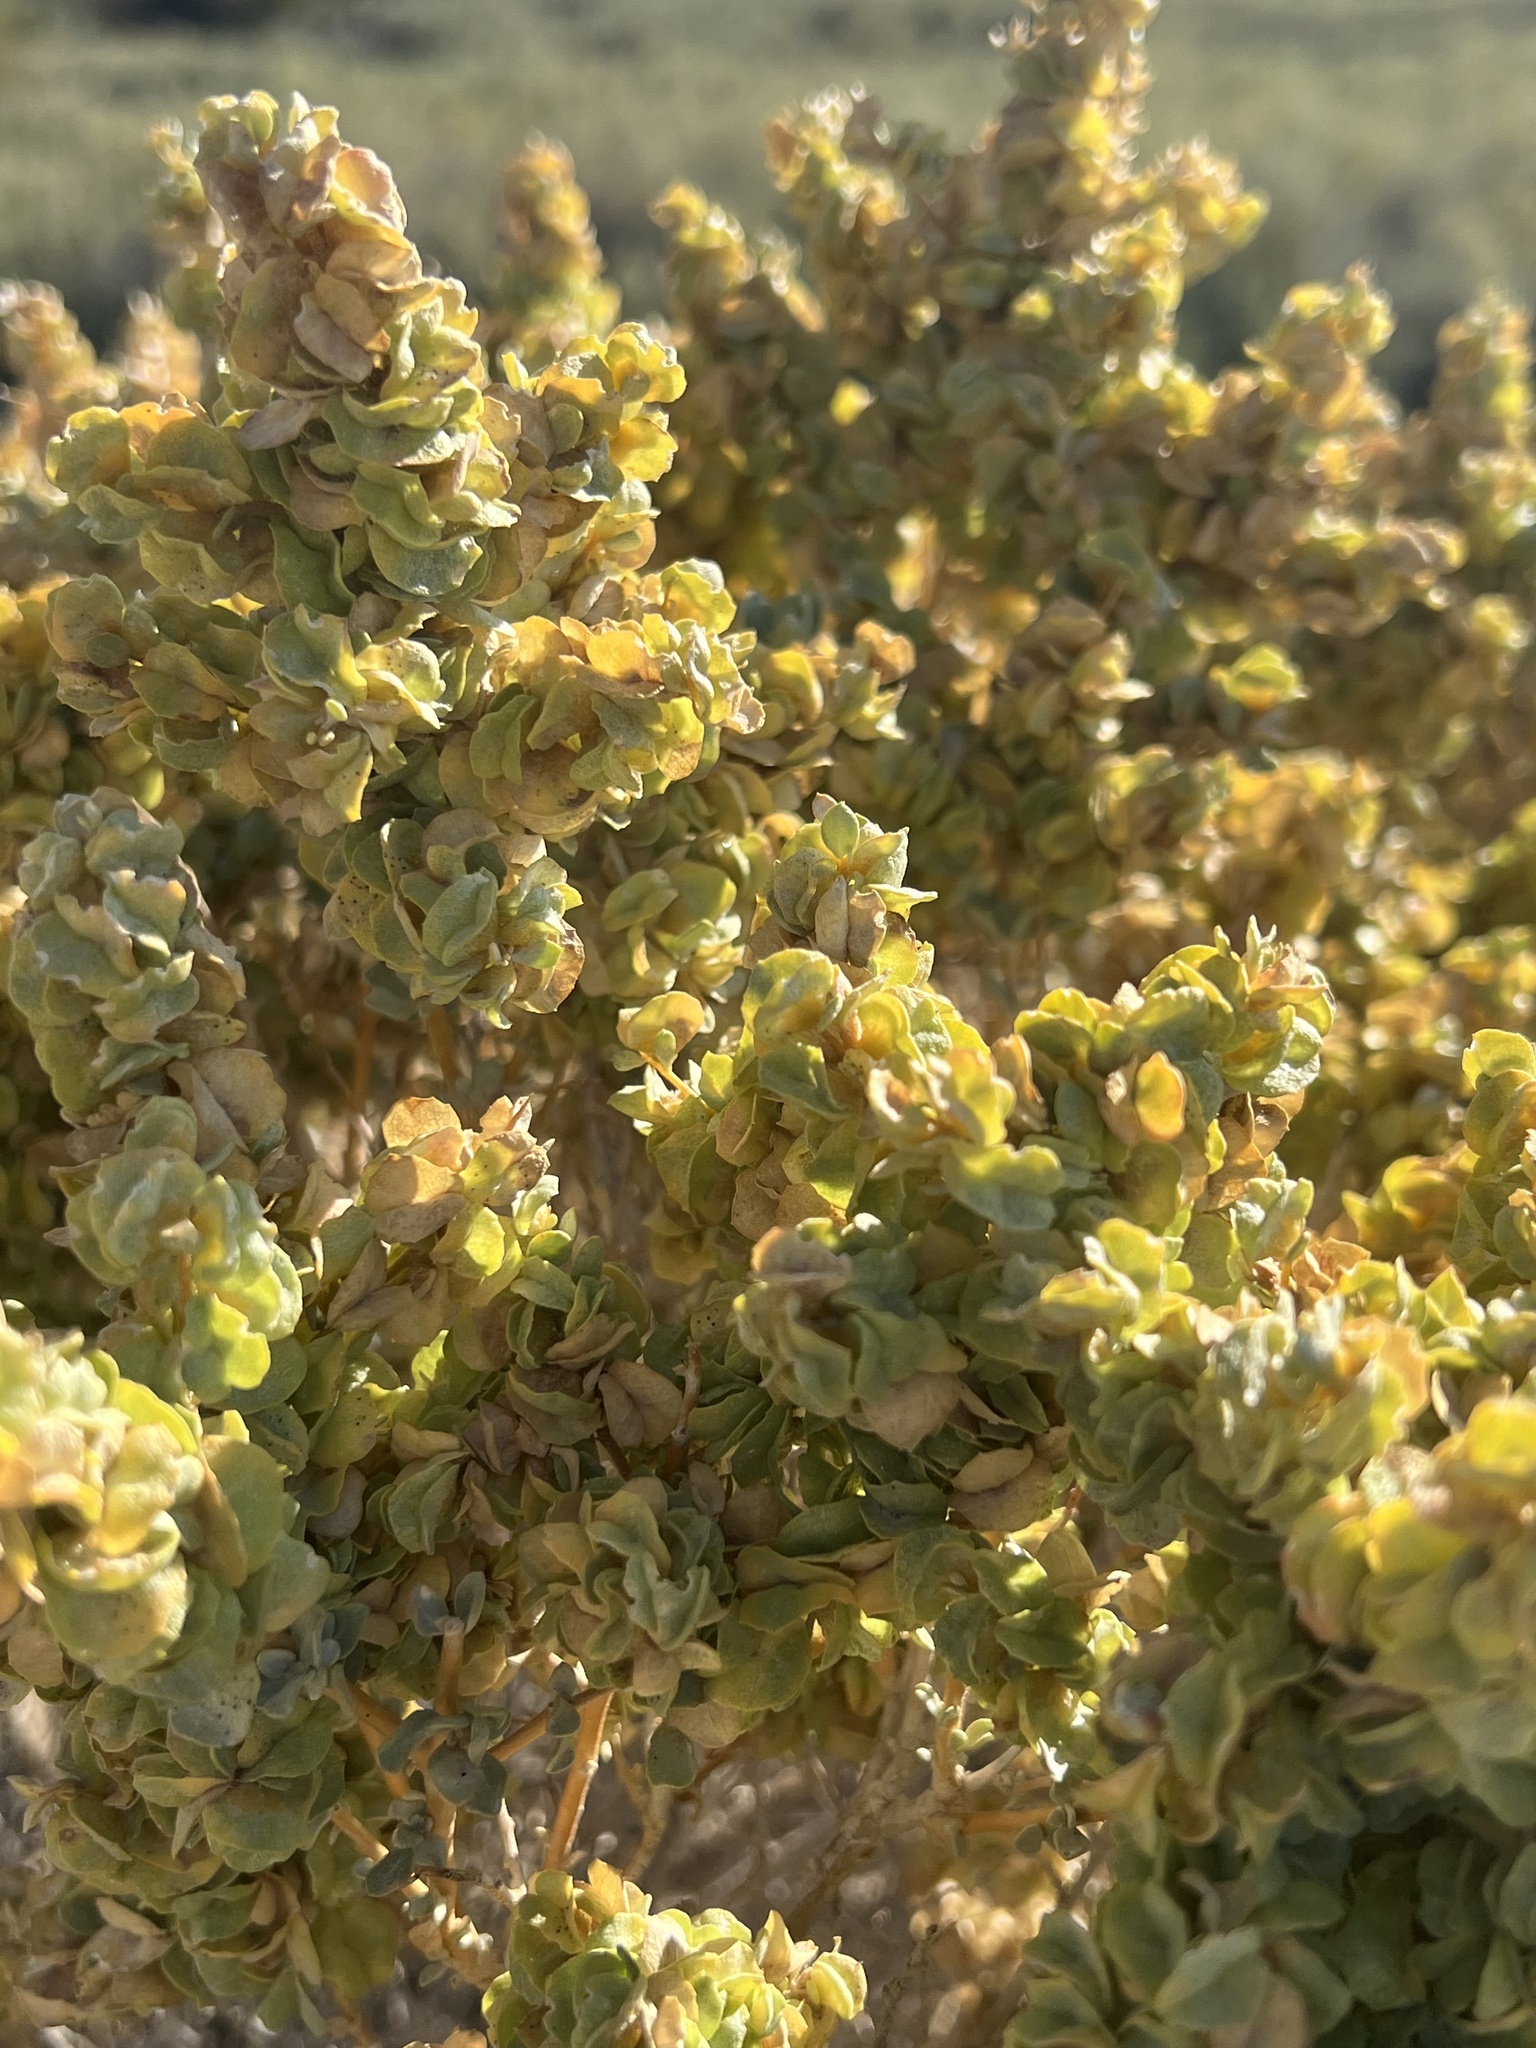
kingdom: Plantae
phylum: Tracheophyta
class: Magnoliopsida
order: Caryophyllales
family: Amaranthaceae
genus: Atriplex
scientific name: Atriplex confertifolia
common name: Shadscale
